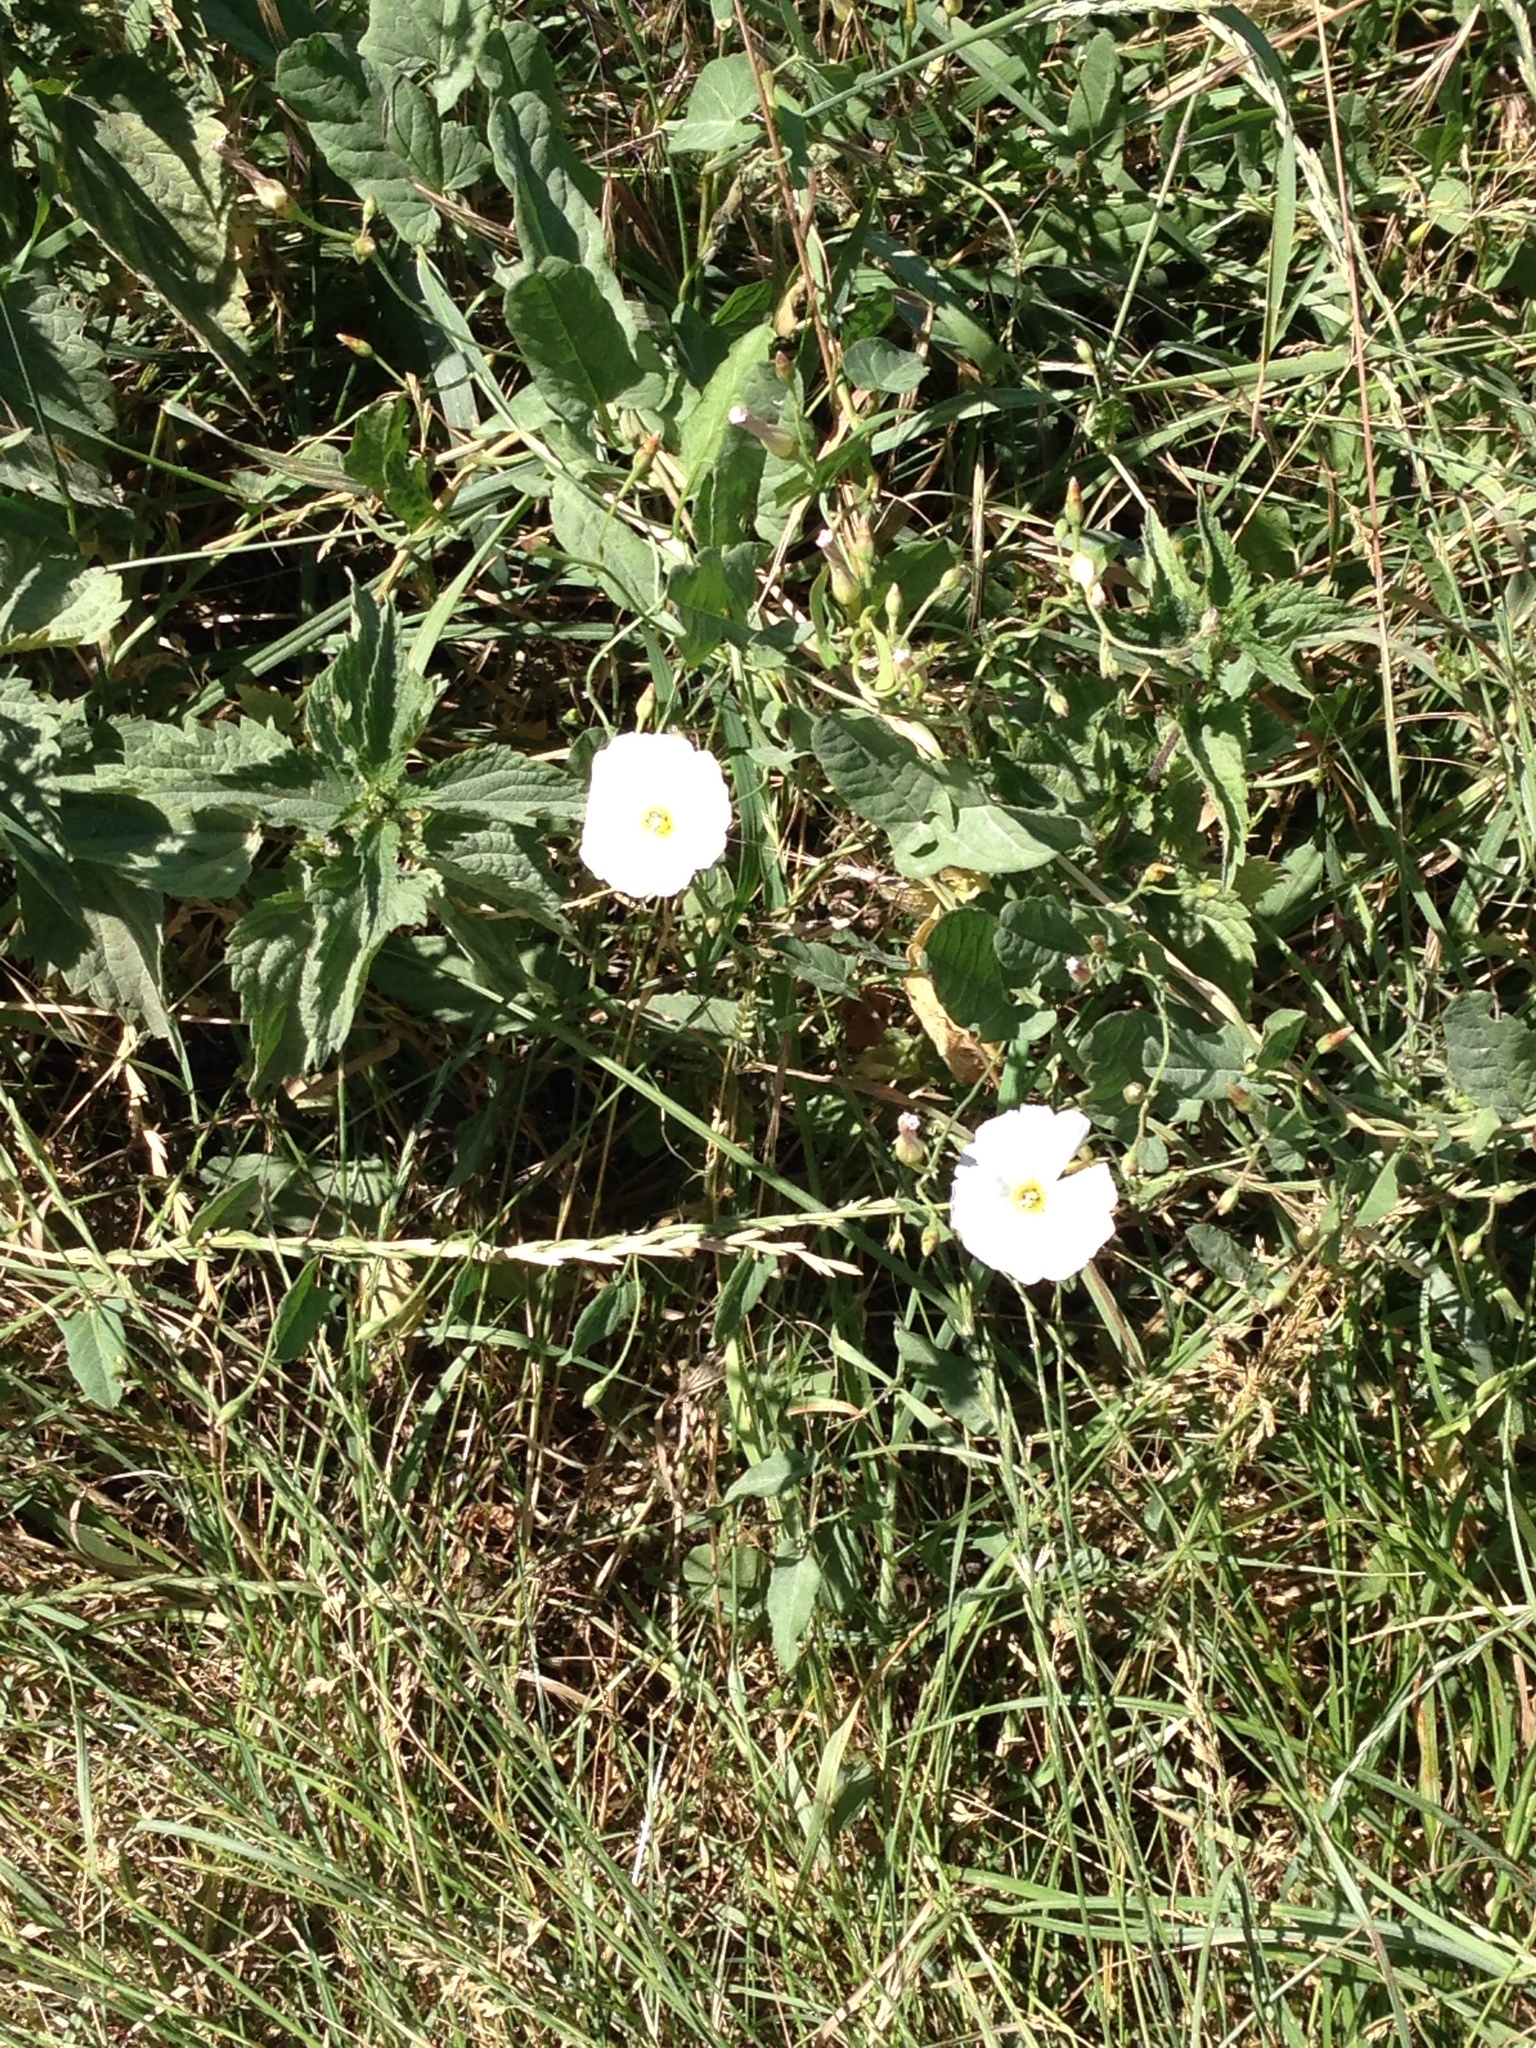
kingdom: Plantae
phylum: Tracheophyta
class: Magnoliopsida
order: Solanales
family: Convolvulaceae
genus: Convolvulus
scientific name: Convolvulus arvensis
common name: Field bindweed
